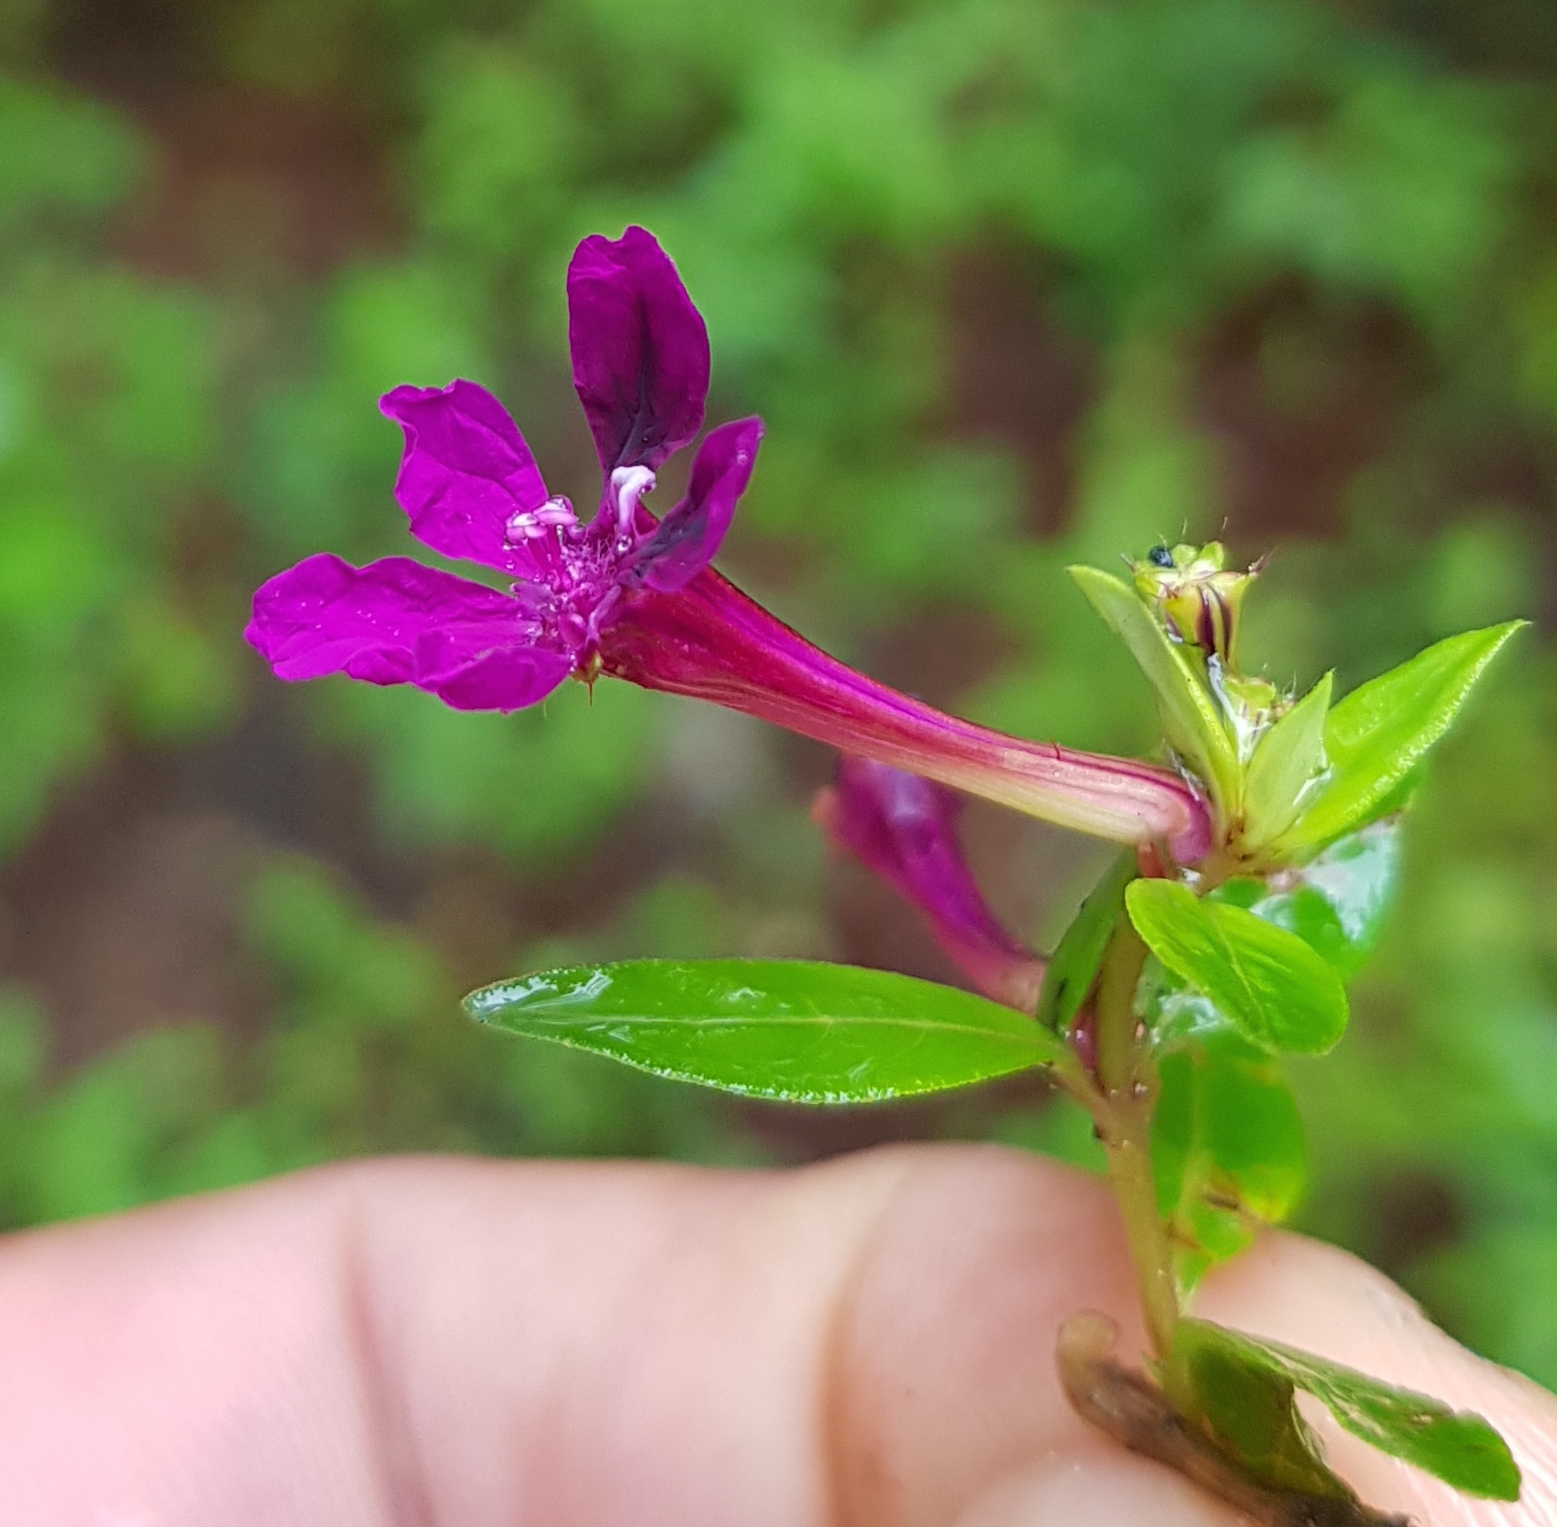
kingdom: Plantae
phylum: Tracheophyta
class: Magnoliopsida
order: Myrtales
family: Lythraceae
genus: Cuphea
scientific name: Cuphea aequipetala
